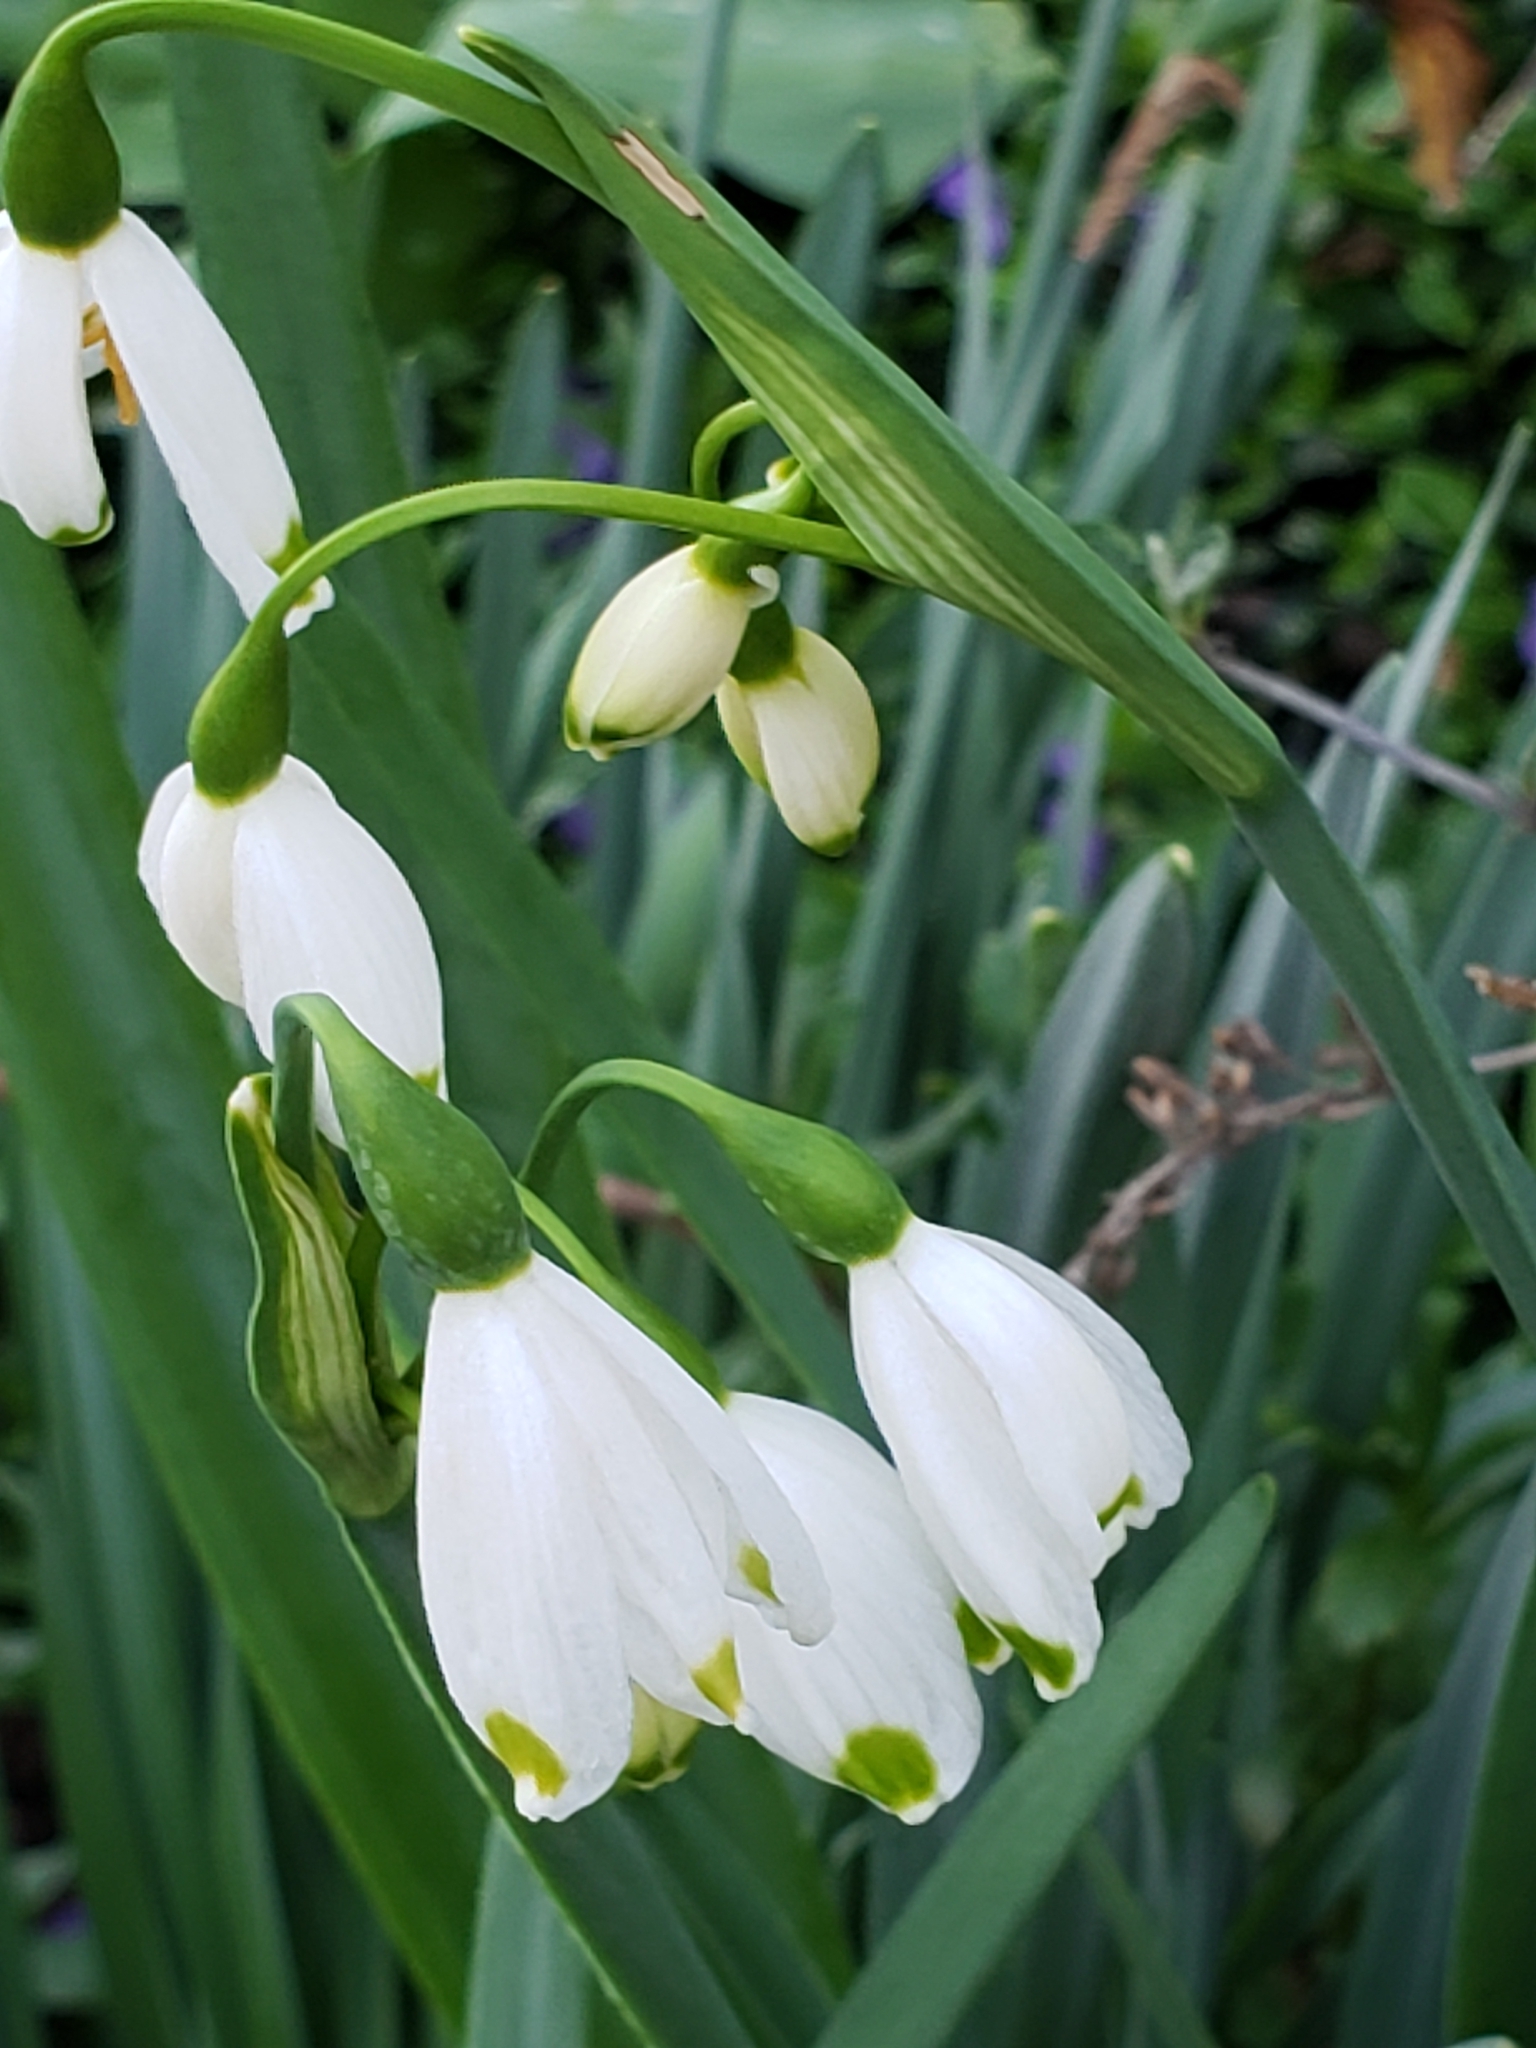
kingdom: Plantae
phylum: Tracheophyta
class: Liliopsida
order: Asparagales
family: Amaryllidaceae
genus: Leucojum
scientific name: Leucojum aestivum
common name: Summer snowflake
